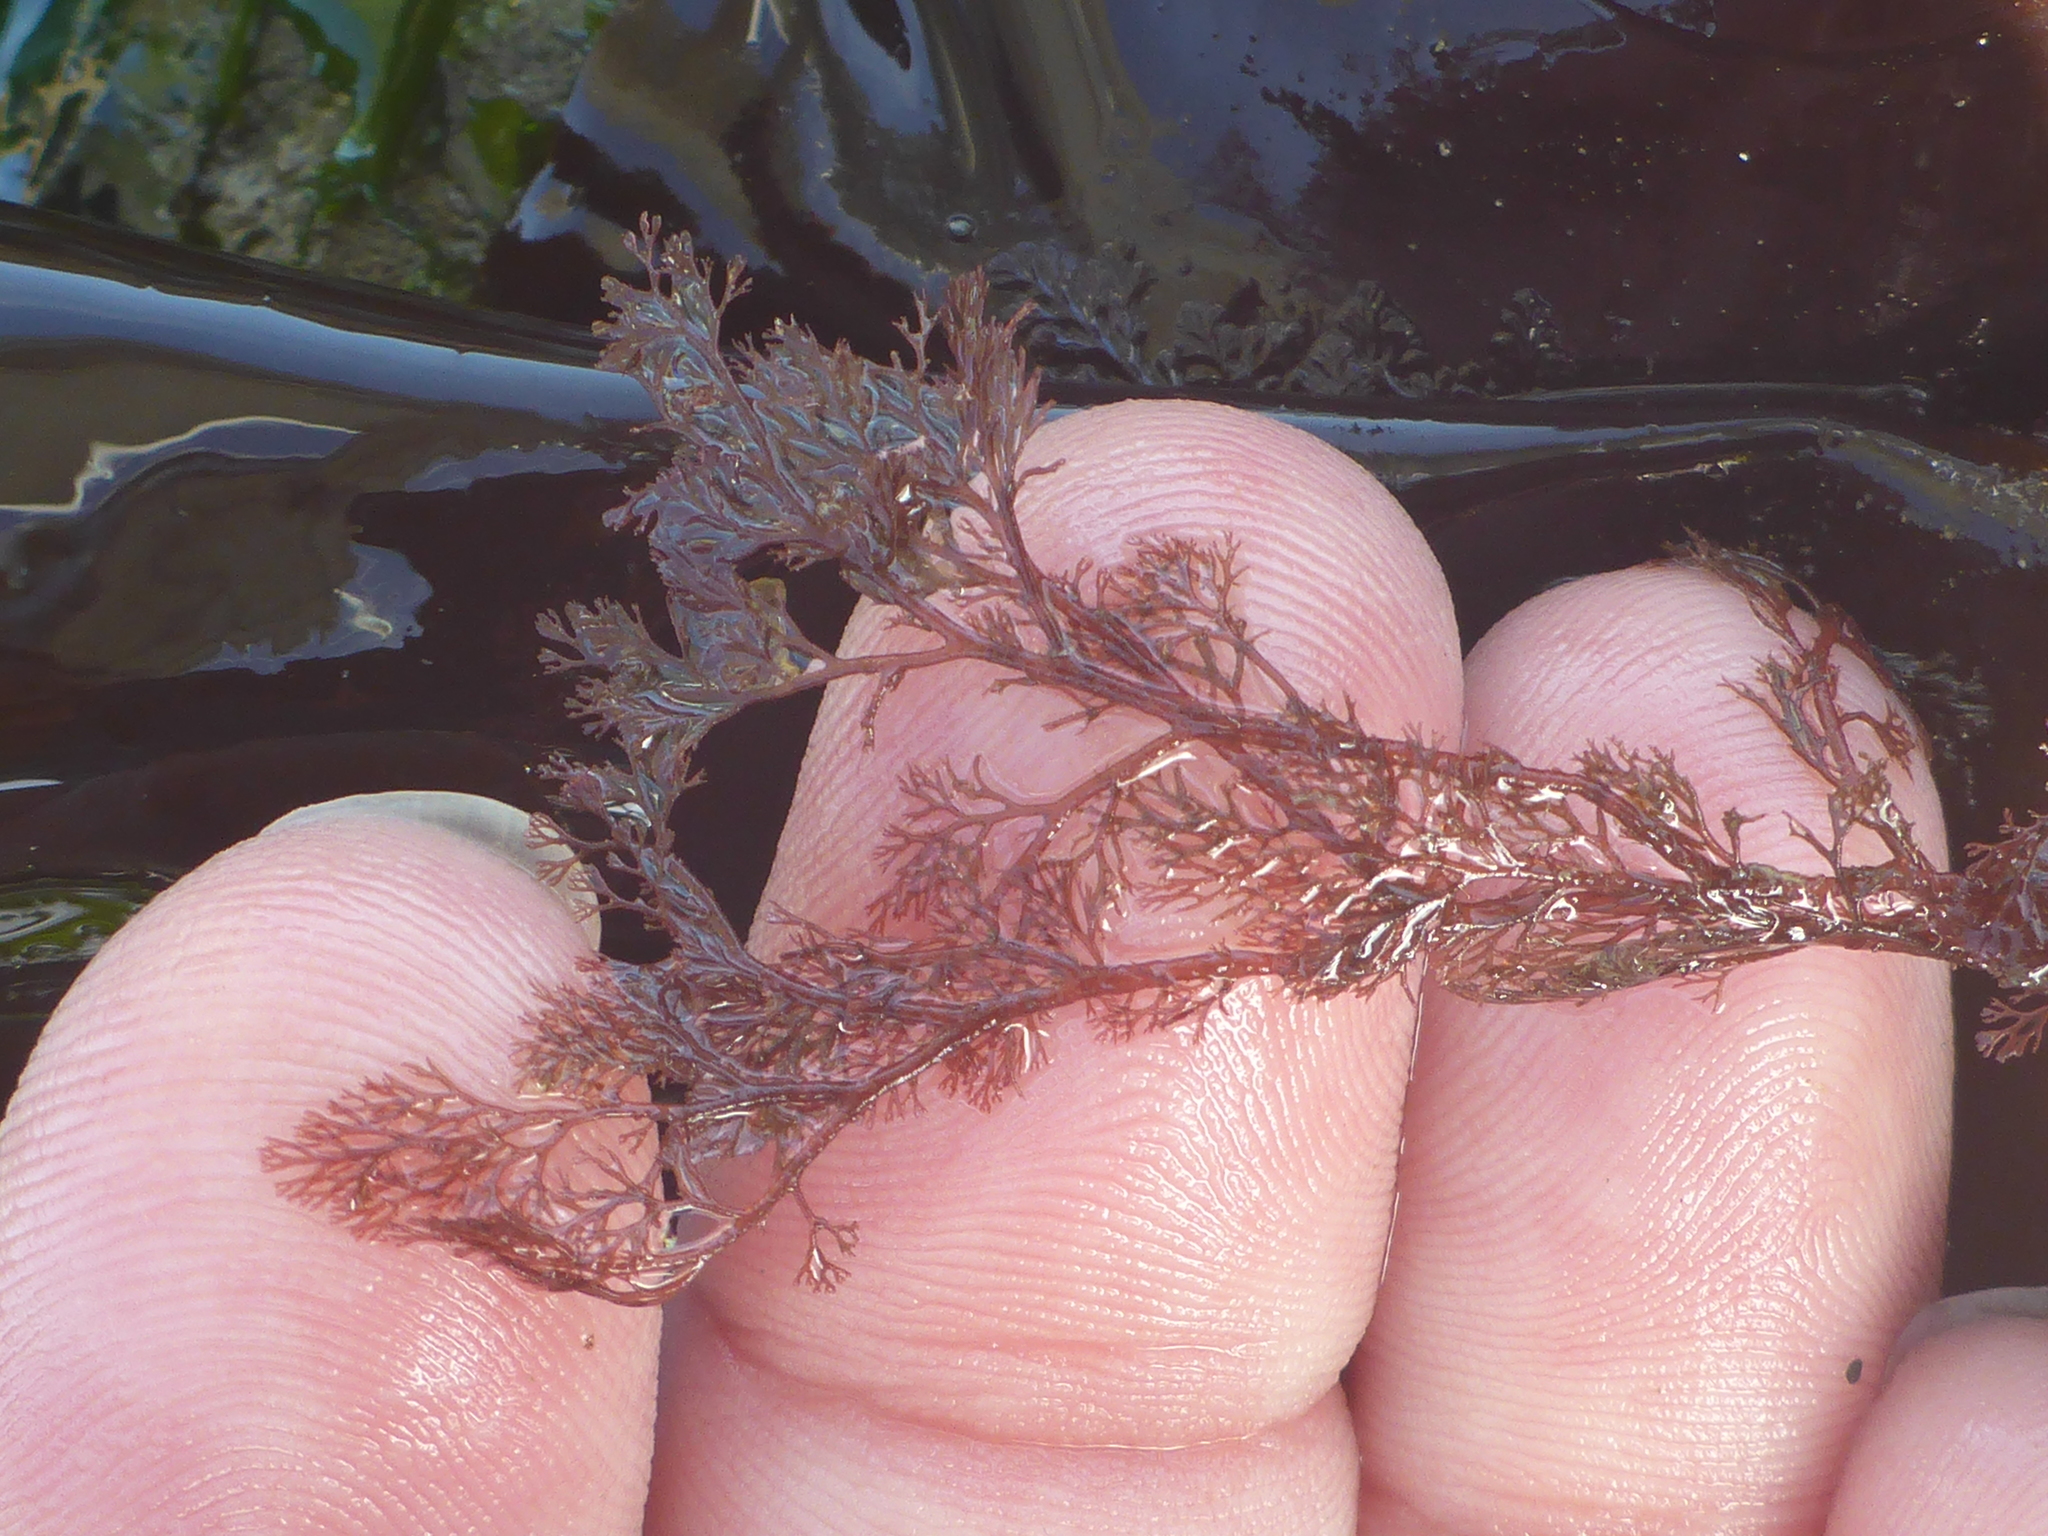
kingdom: Plantae
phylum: Rhodophyta
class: Florideophyceae
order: Ceramiales
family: Ceramiaceae
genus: Microcladia
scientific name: Microcladia coulteri
